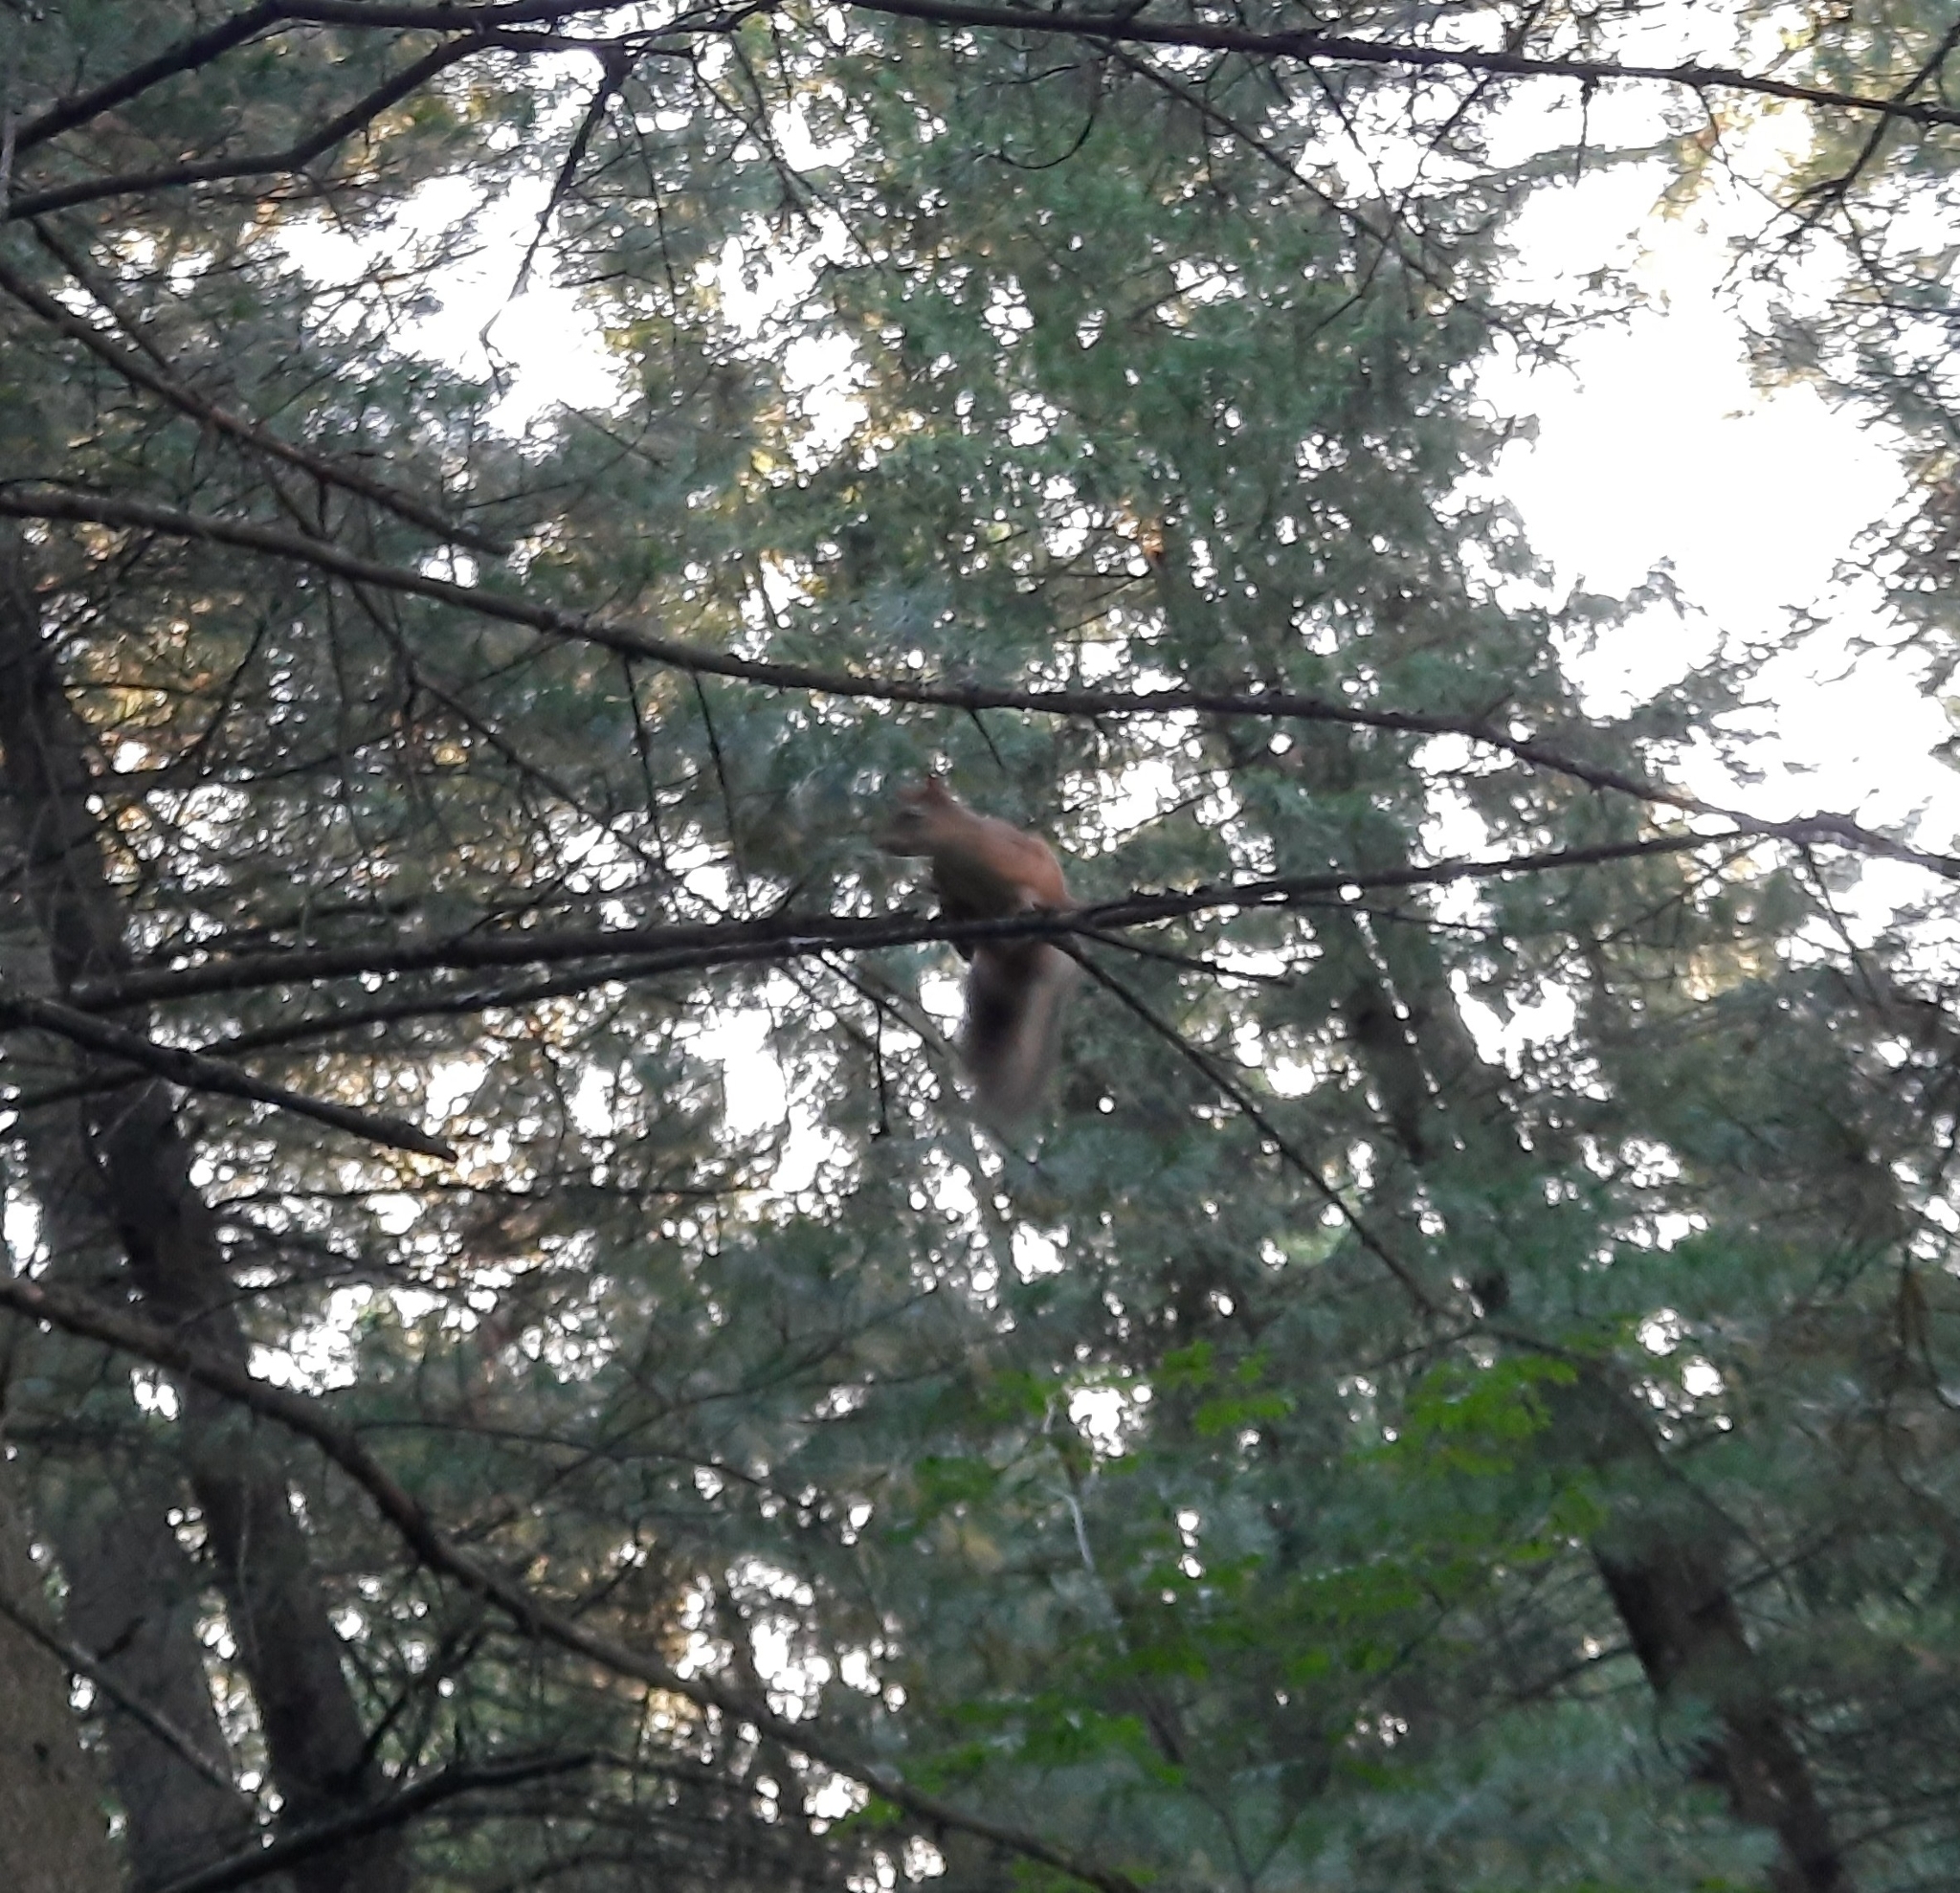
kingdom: Animalia
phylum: Chordata
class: Mammalia
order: Rodentia
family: Sciuridae
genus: Sciurus
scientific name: Sciurus vulgaris
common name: Eurasian red squirrel
